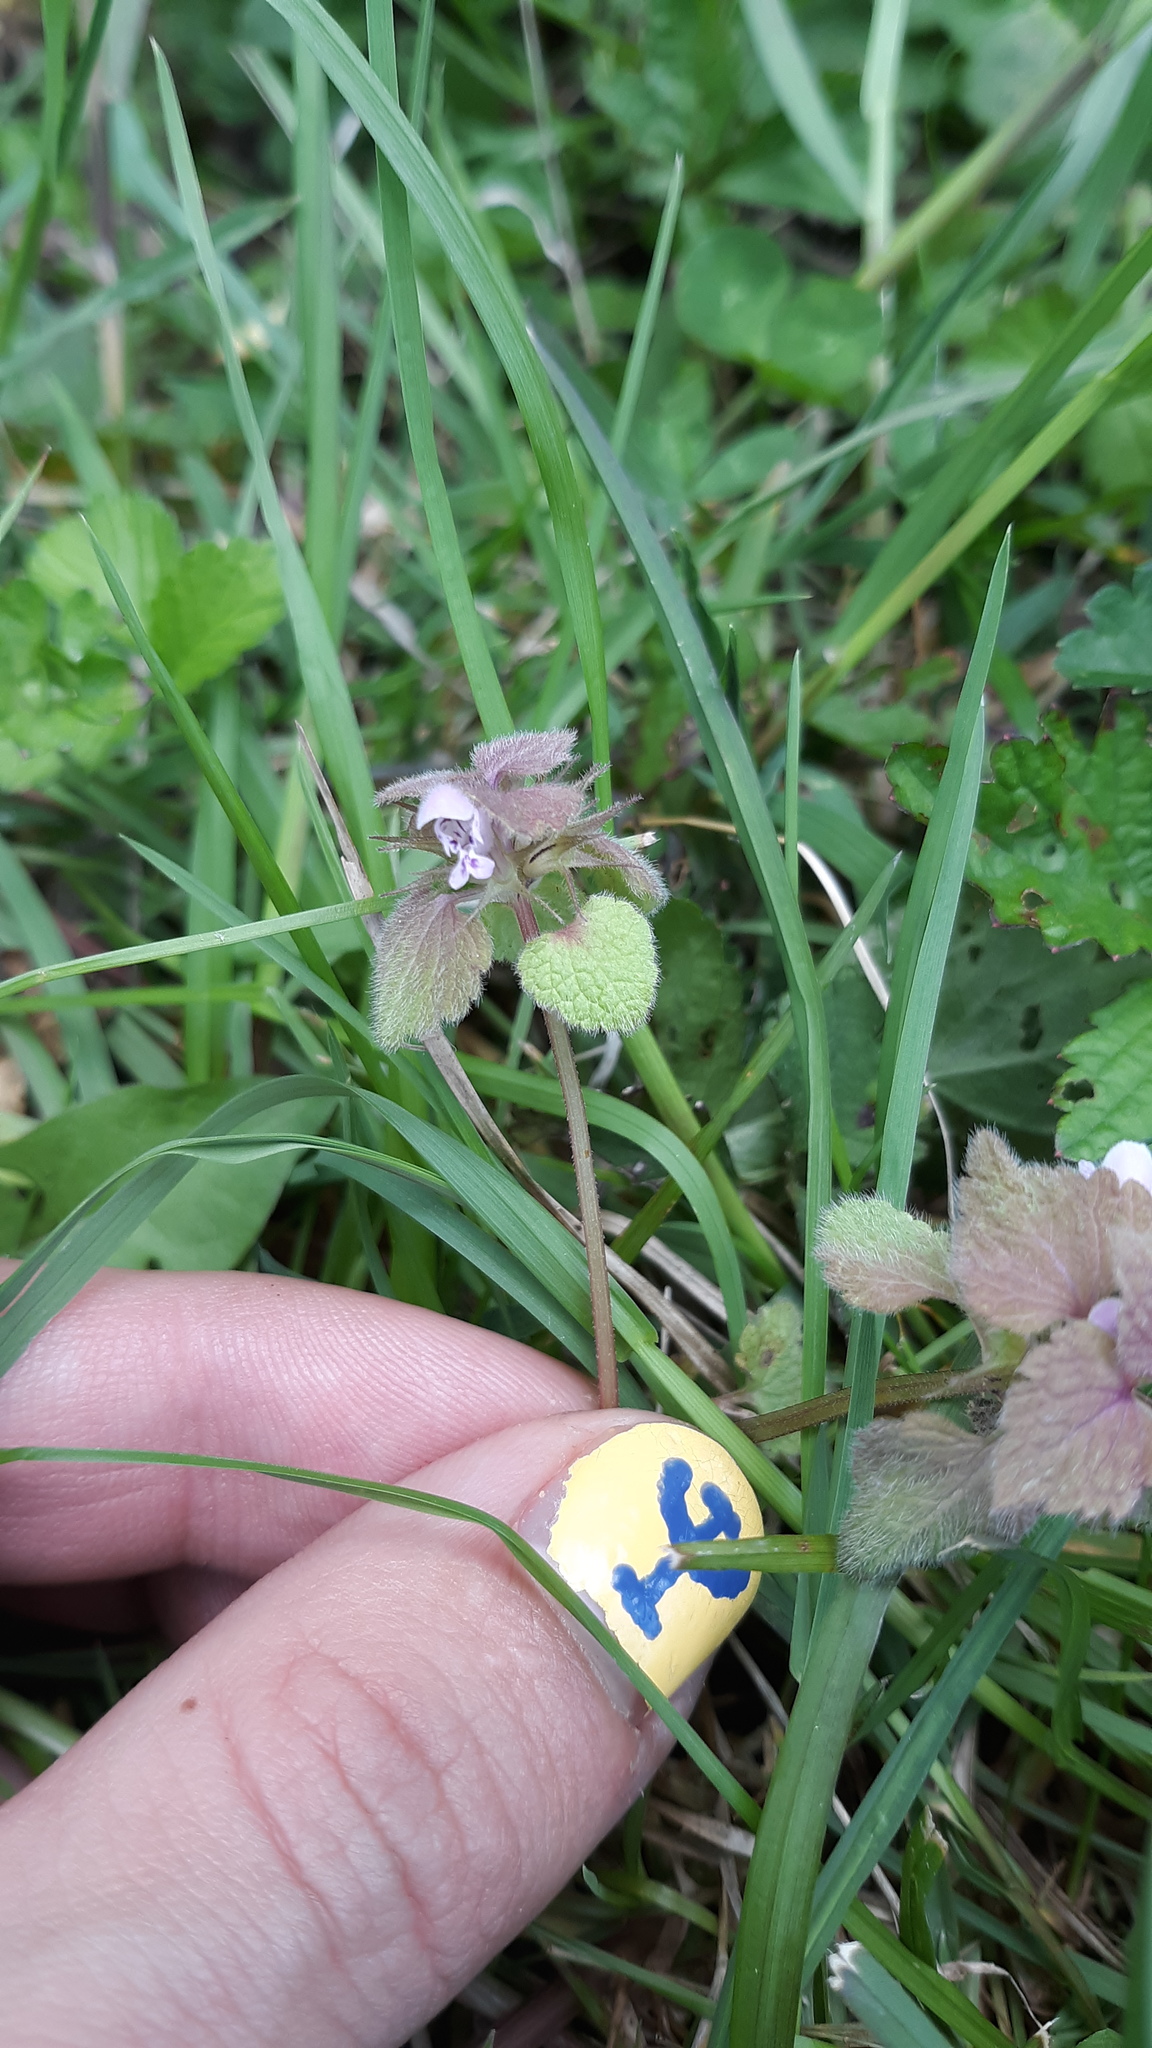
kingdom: Plantae
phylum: Tracheophyta
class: Magnoliopsida
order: Lamiales
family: Lamiaceae
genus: Lamium
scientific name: Lamium purpureum
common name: Red dead-nettle
